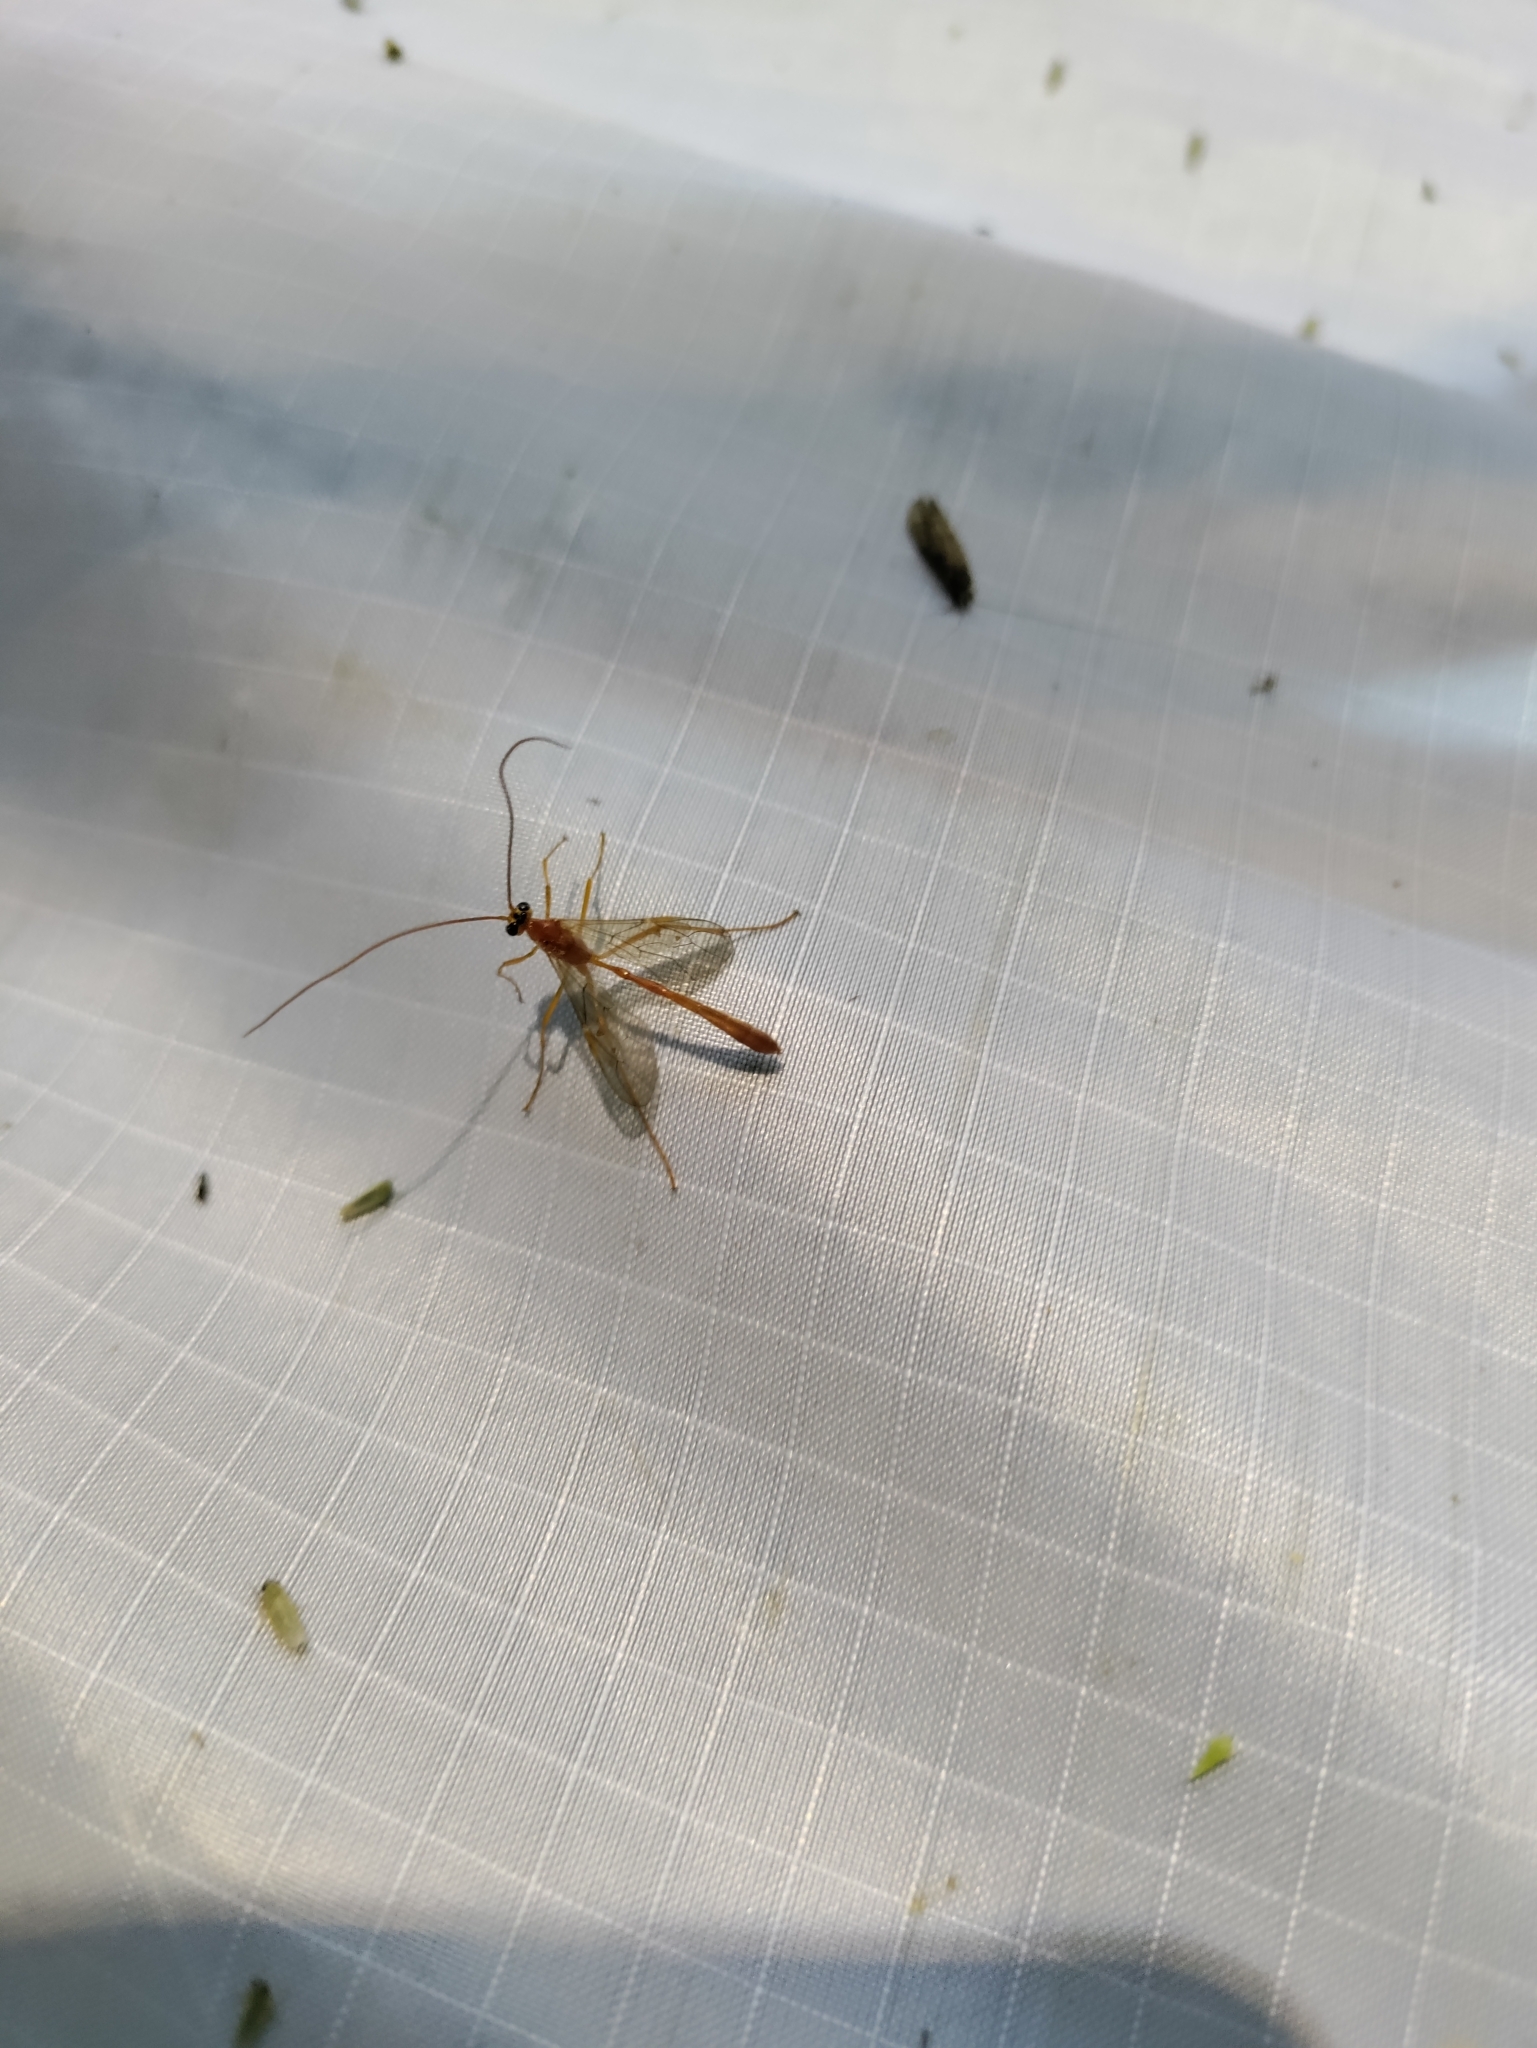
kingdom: Animalia
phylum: Arthropoda
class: Insecta
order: Hymenoptera
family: Ichneumonidae
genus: Enicospilus
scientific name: Enicospilus purgatus
